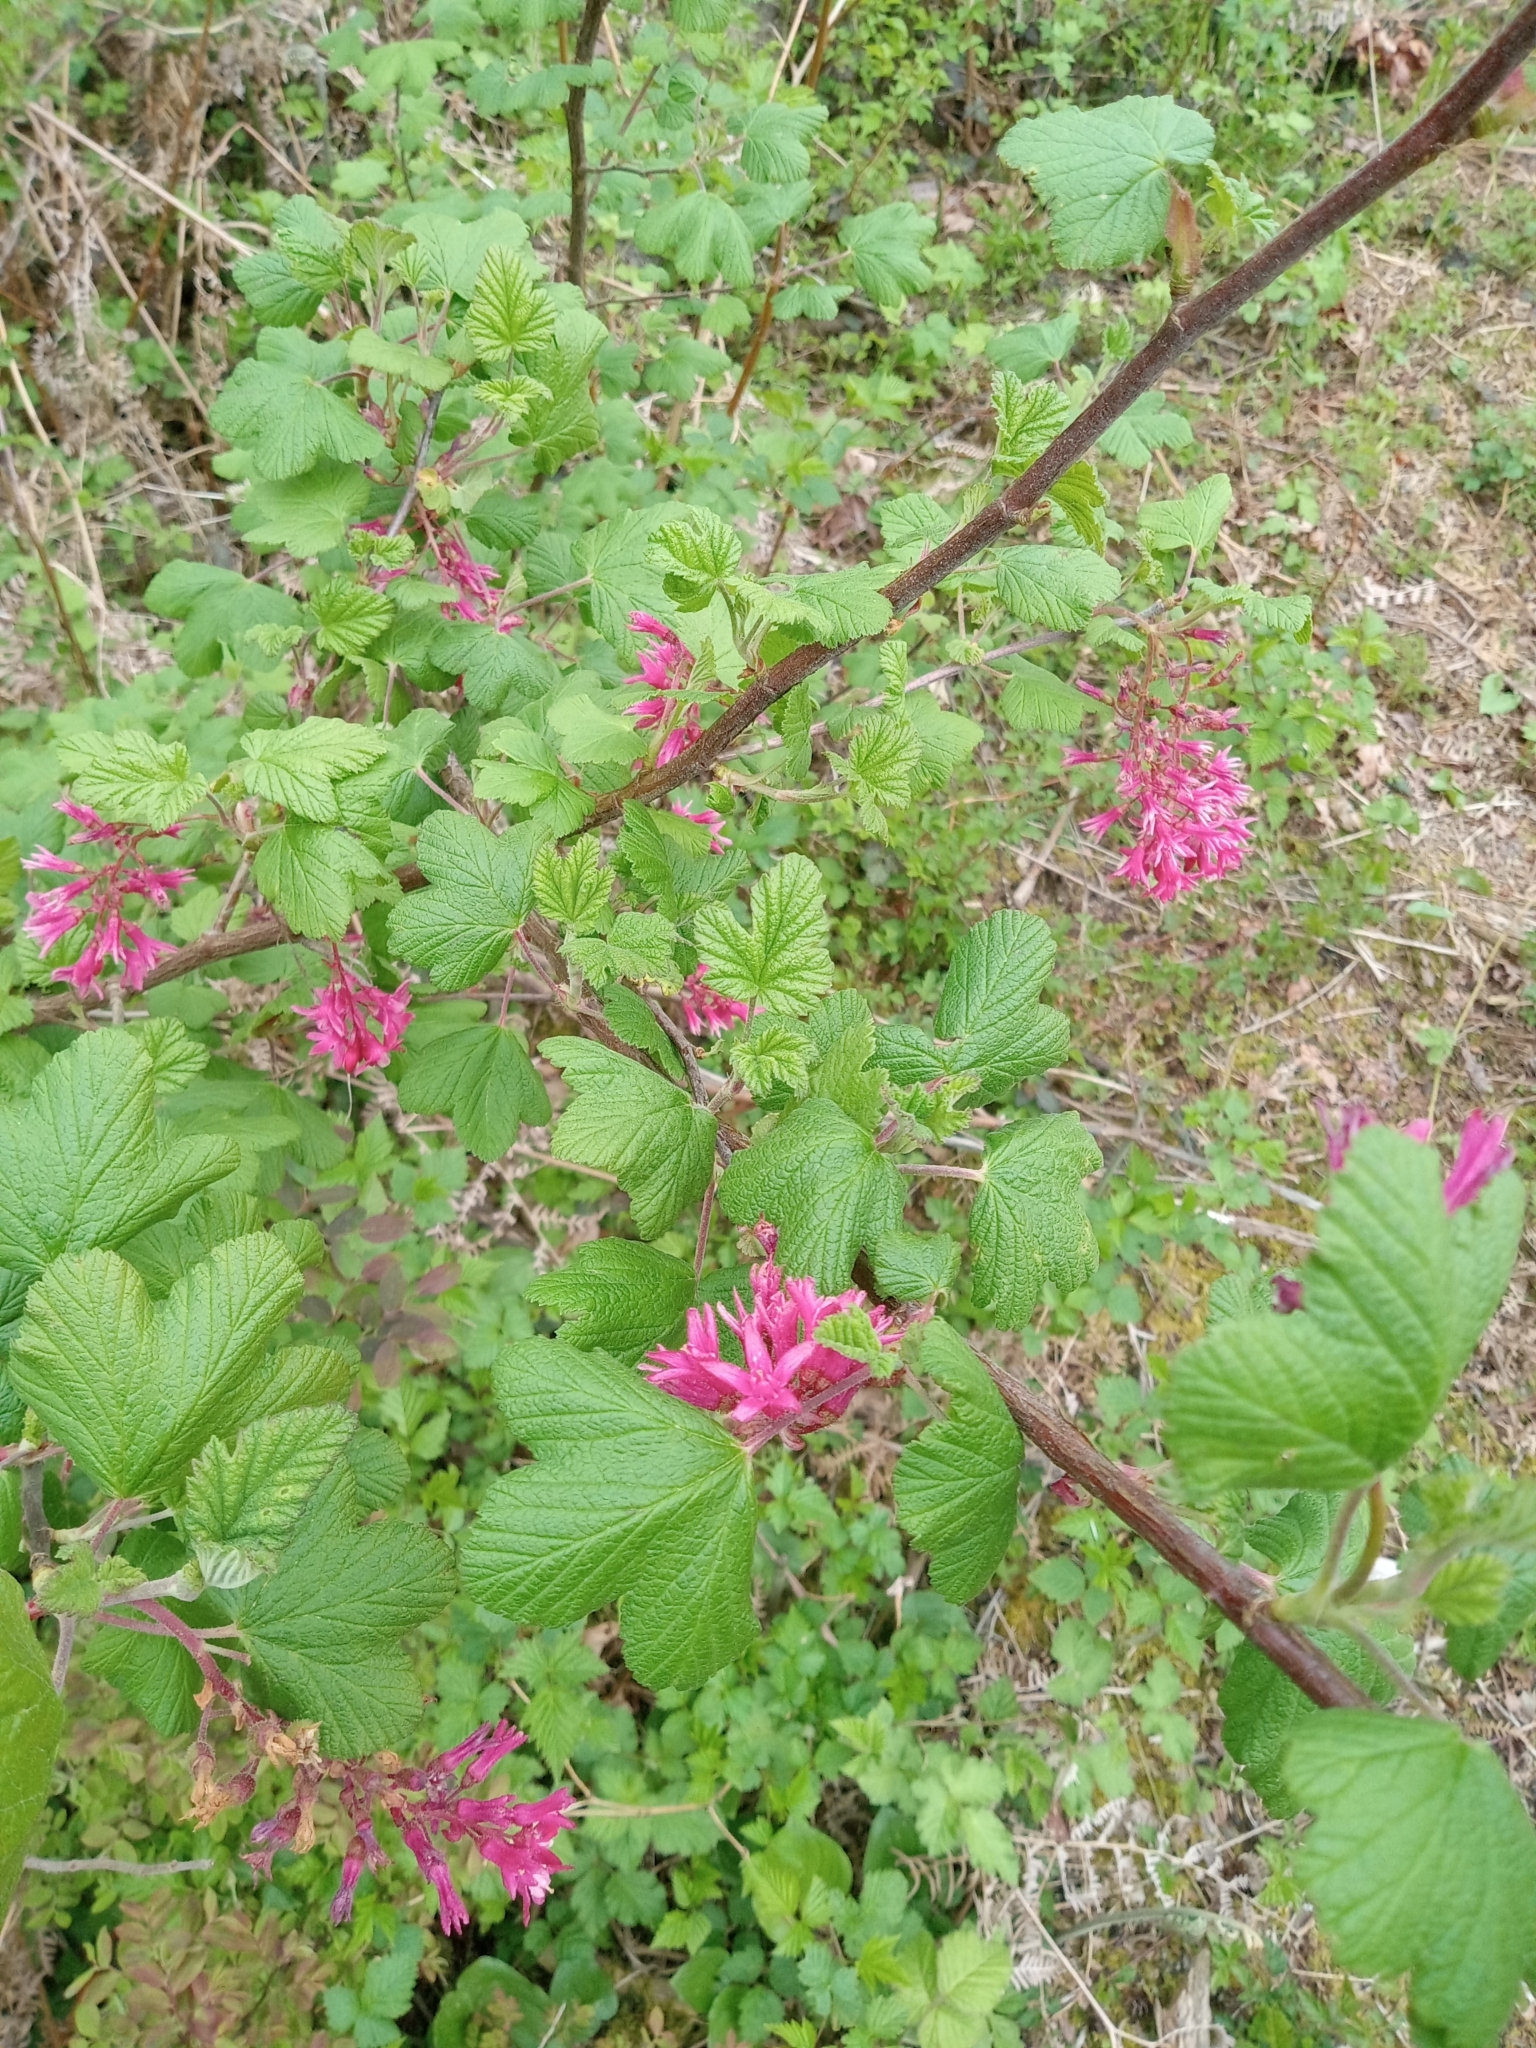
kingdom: Plantae
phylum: Tracheophyta
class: Magnoliopsida
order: Saxifragales
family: Grossulariaceae
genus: Ribes
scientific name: Ribes sanguineum
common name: Flowering currant
